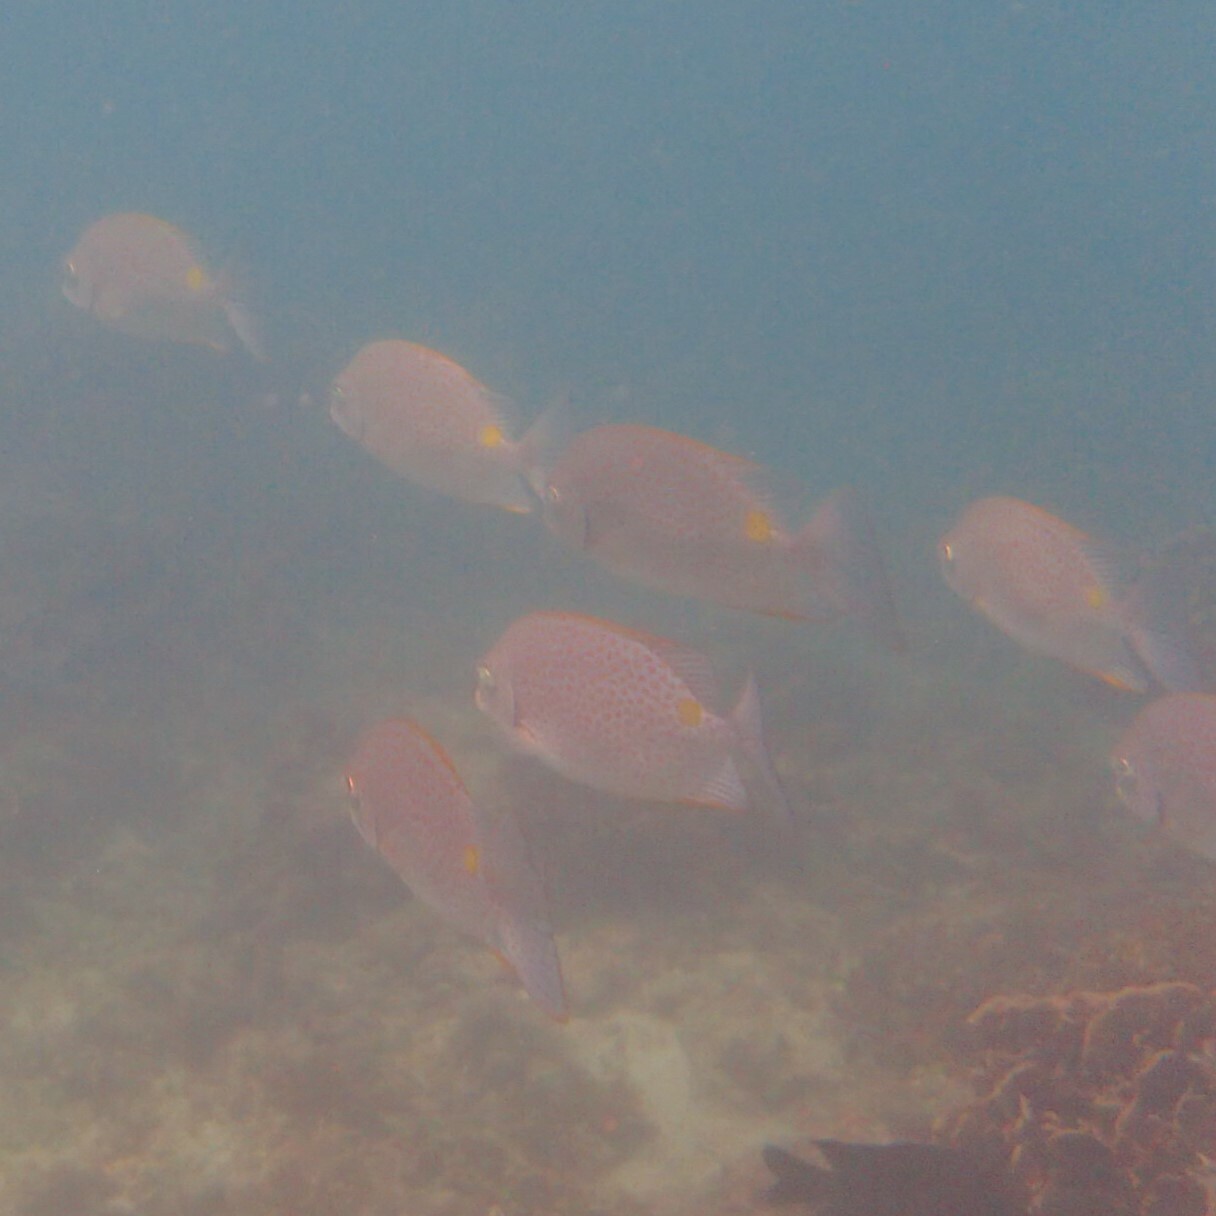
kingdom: Animalia
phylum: Chordata
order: Perciformes
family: Siganidae
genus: Siganus
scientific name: Siganus guttatus
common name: Golden rabbitfish
